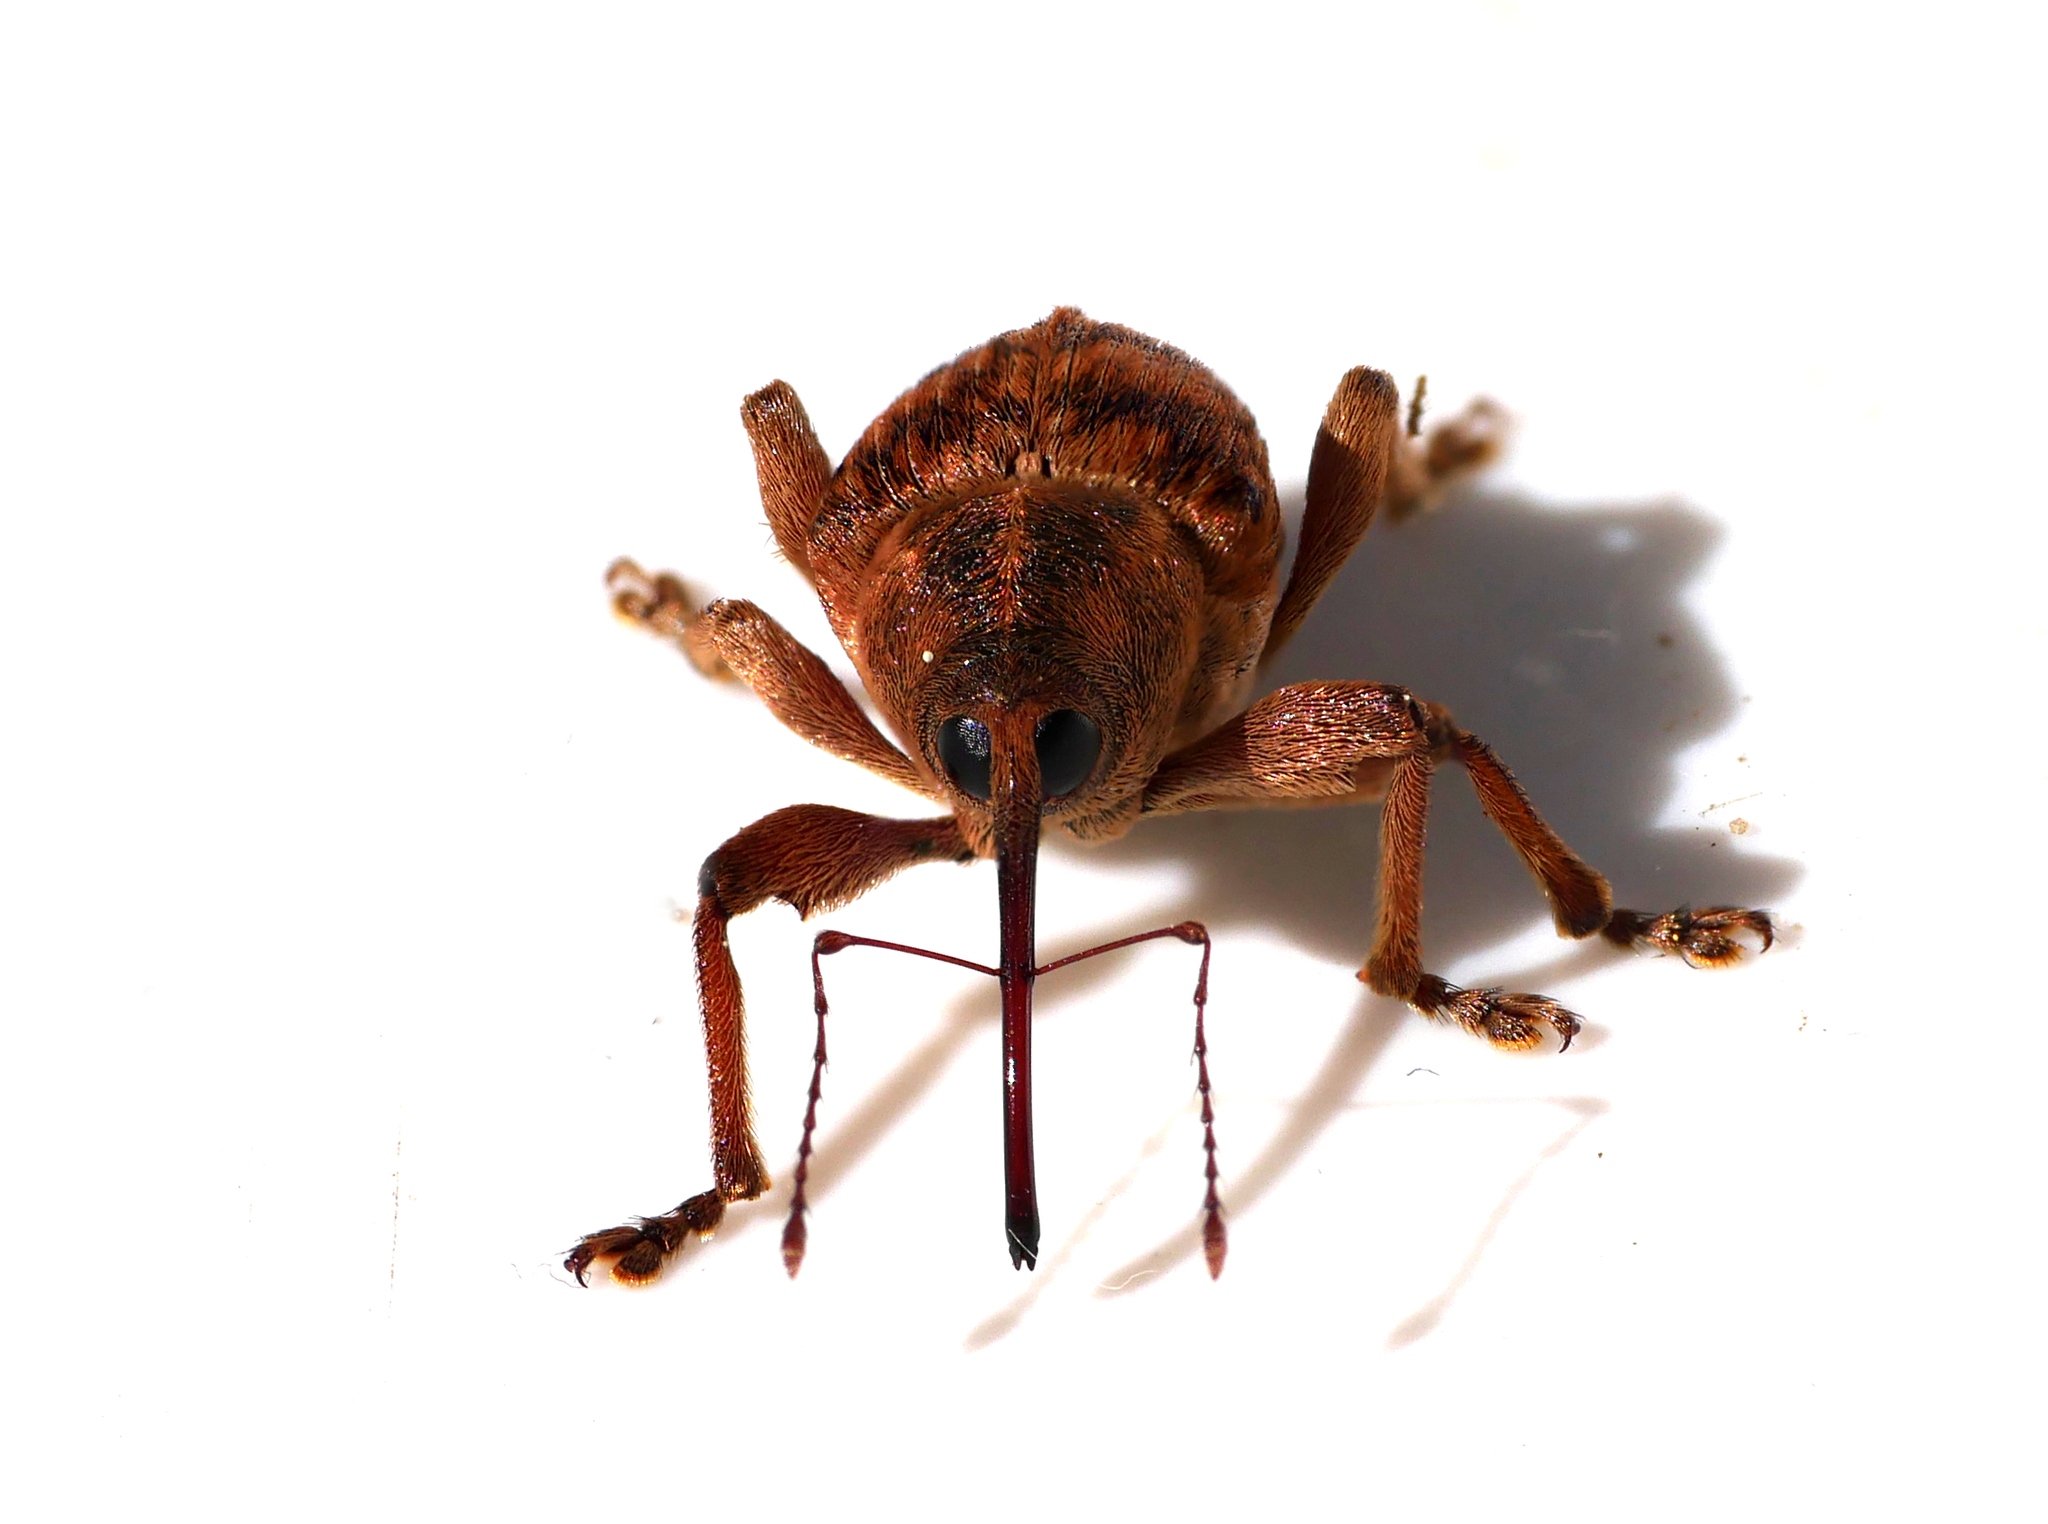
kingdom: Animalia
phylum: Arthropoda
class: Insecta
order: Coleoptera
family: Curculionidae
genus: Curculio
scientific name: Curculio venosus
